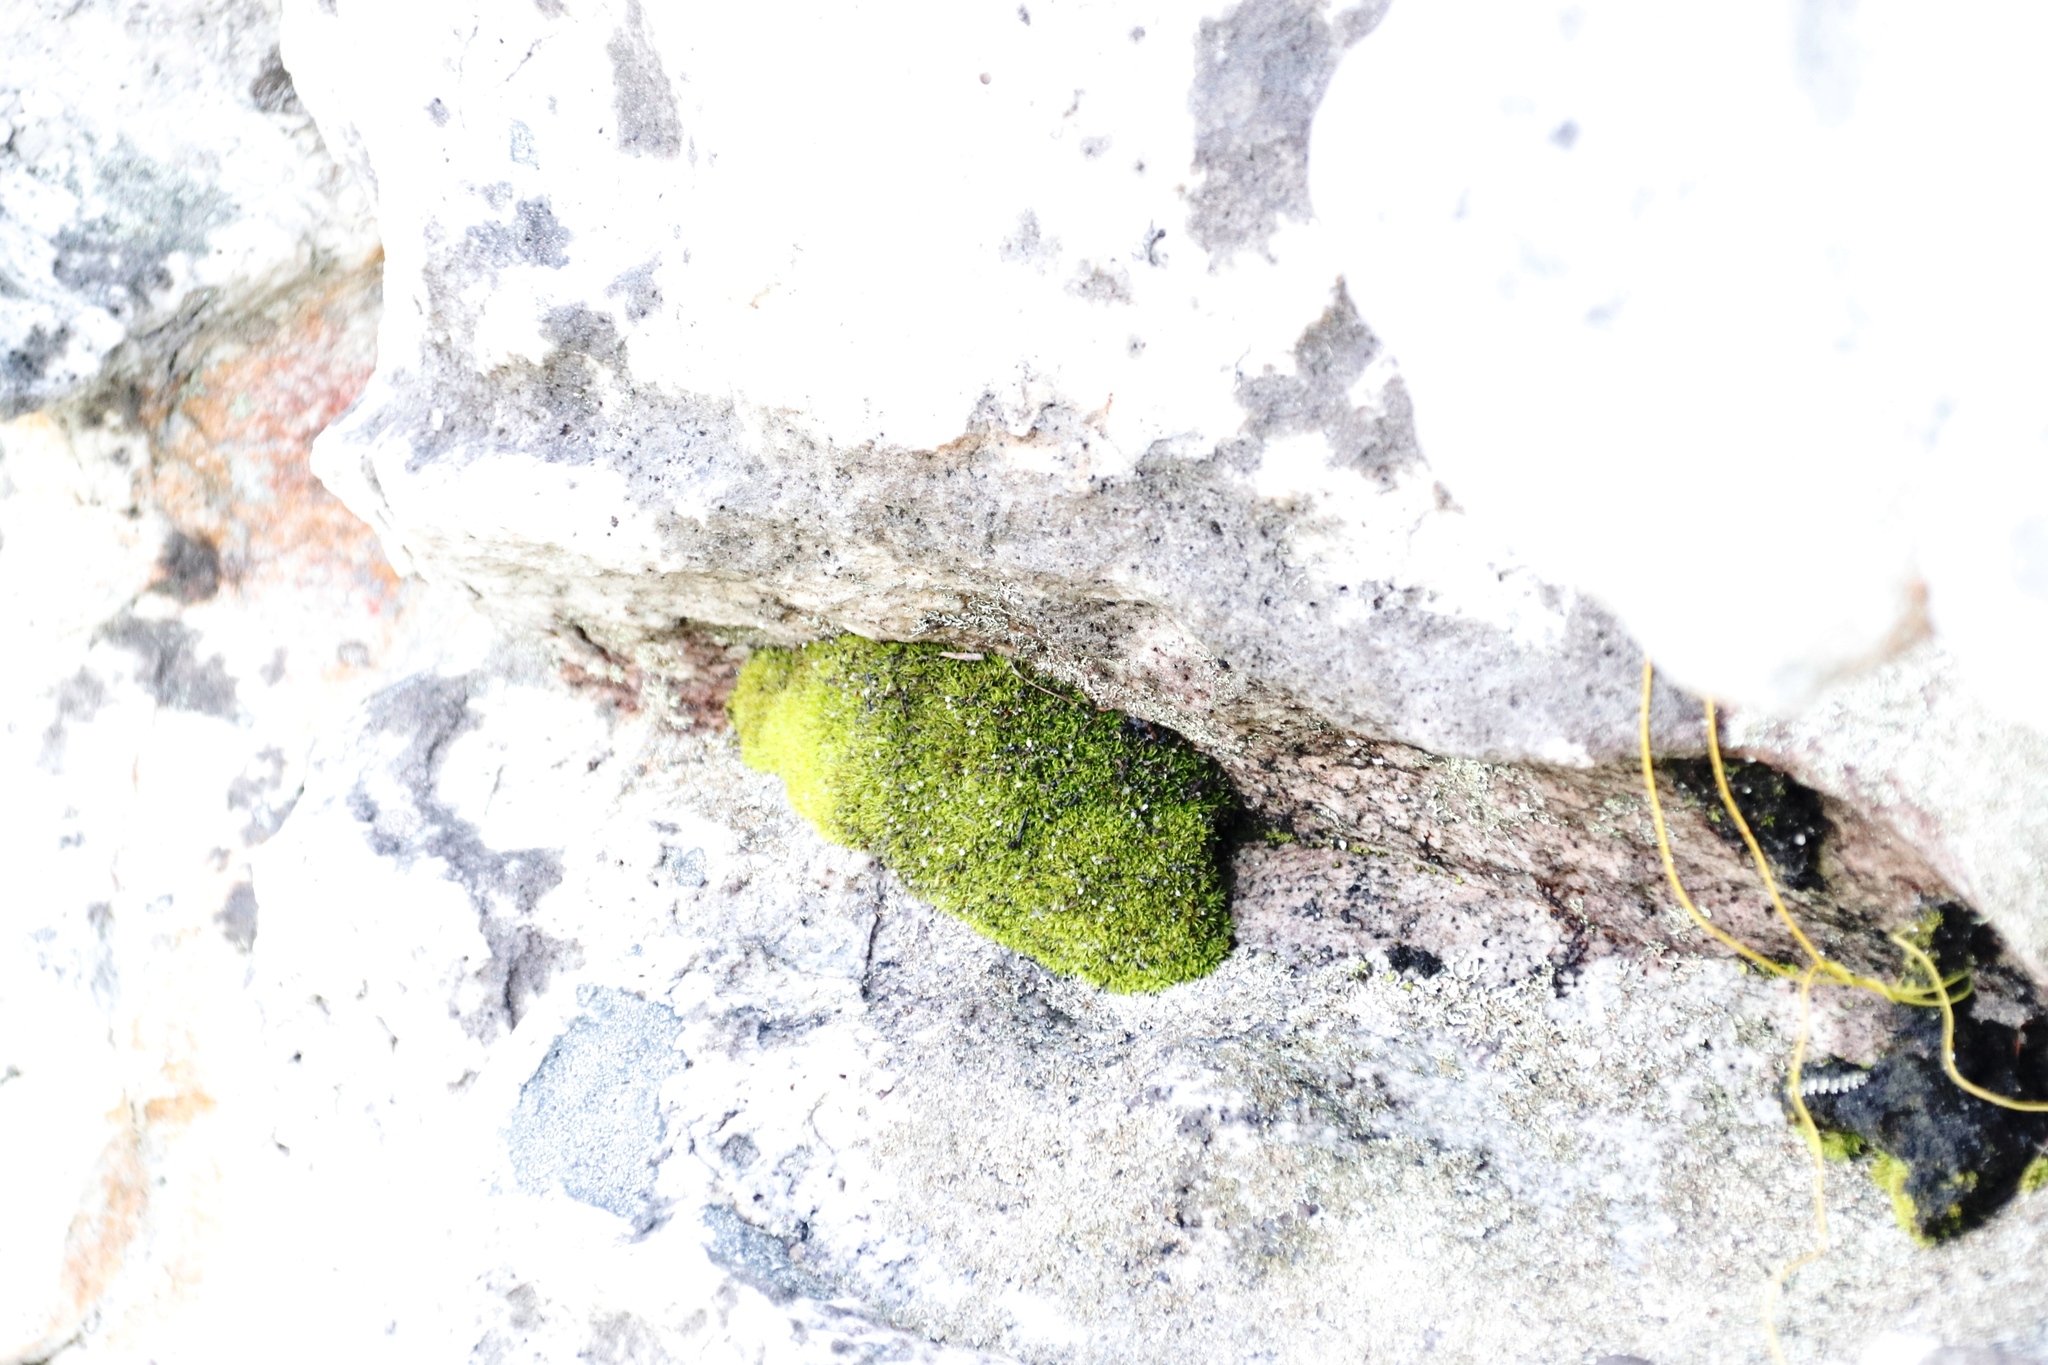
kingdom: Plantae
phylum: Bryophyta
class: Bryopsida
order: Dicranales
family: Hypodontiaceae
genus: Hypodontium
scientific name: Hypodontium pomiforme
